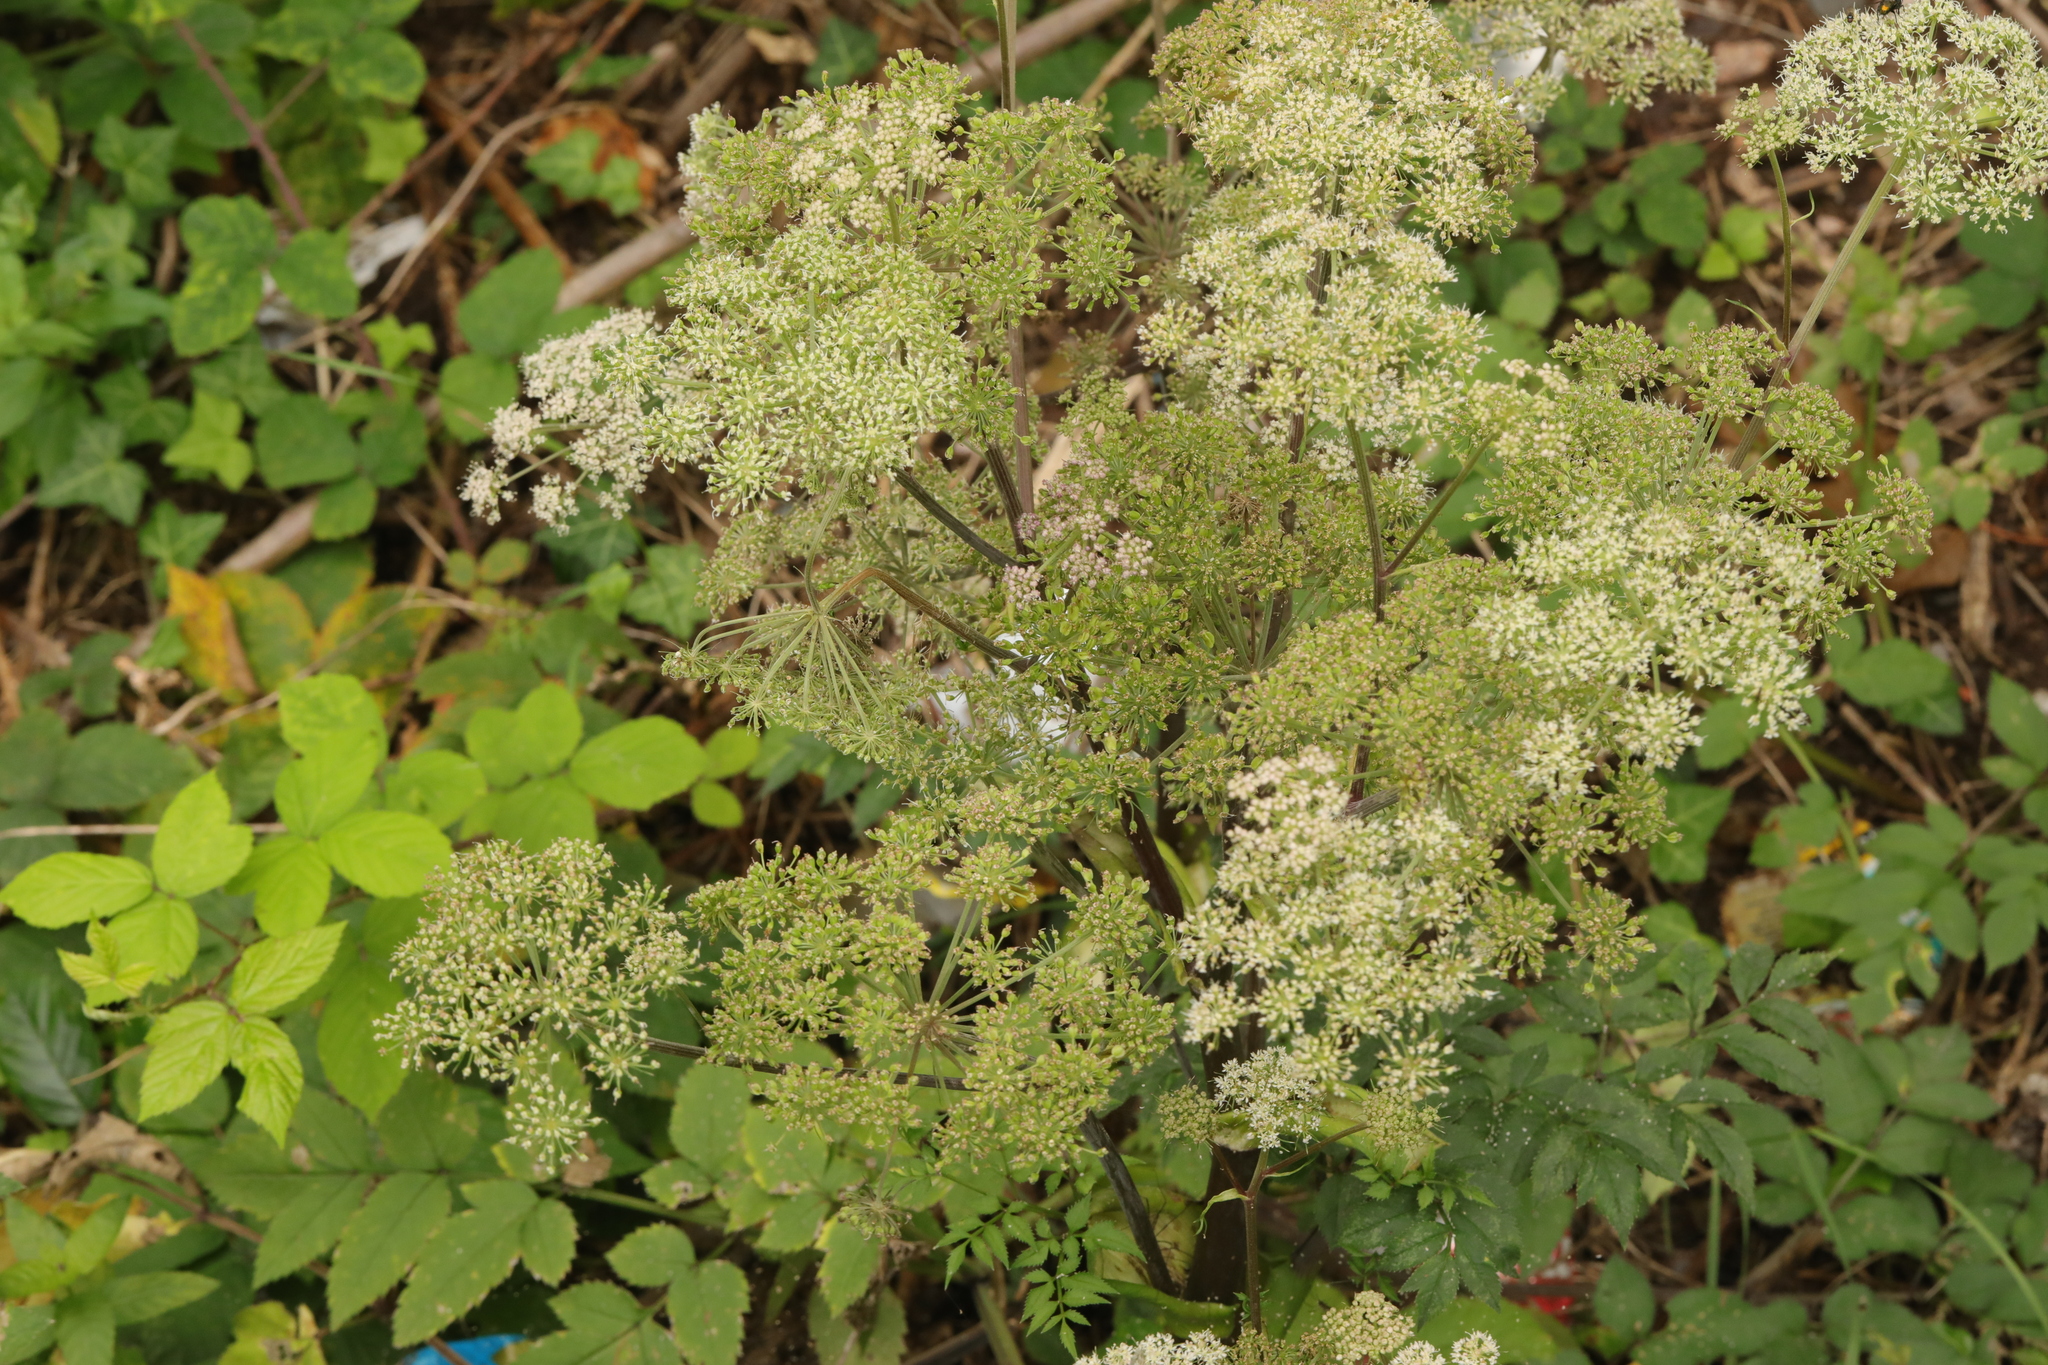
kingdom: Plantae
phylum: Tracheophyta
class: Magnoliopsida
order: Apiales
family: Apiaceae
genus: Angelica
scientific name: Angelica sylvestris
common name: Wild angelica
